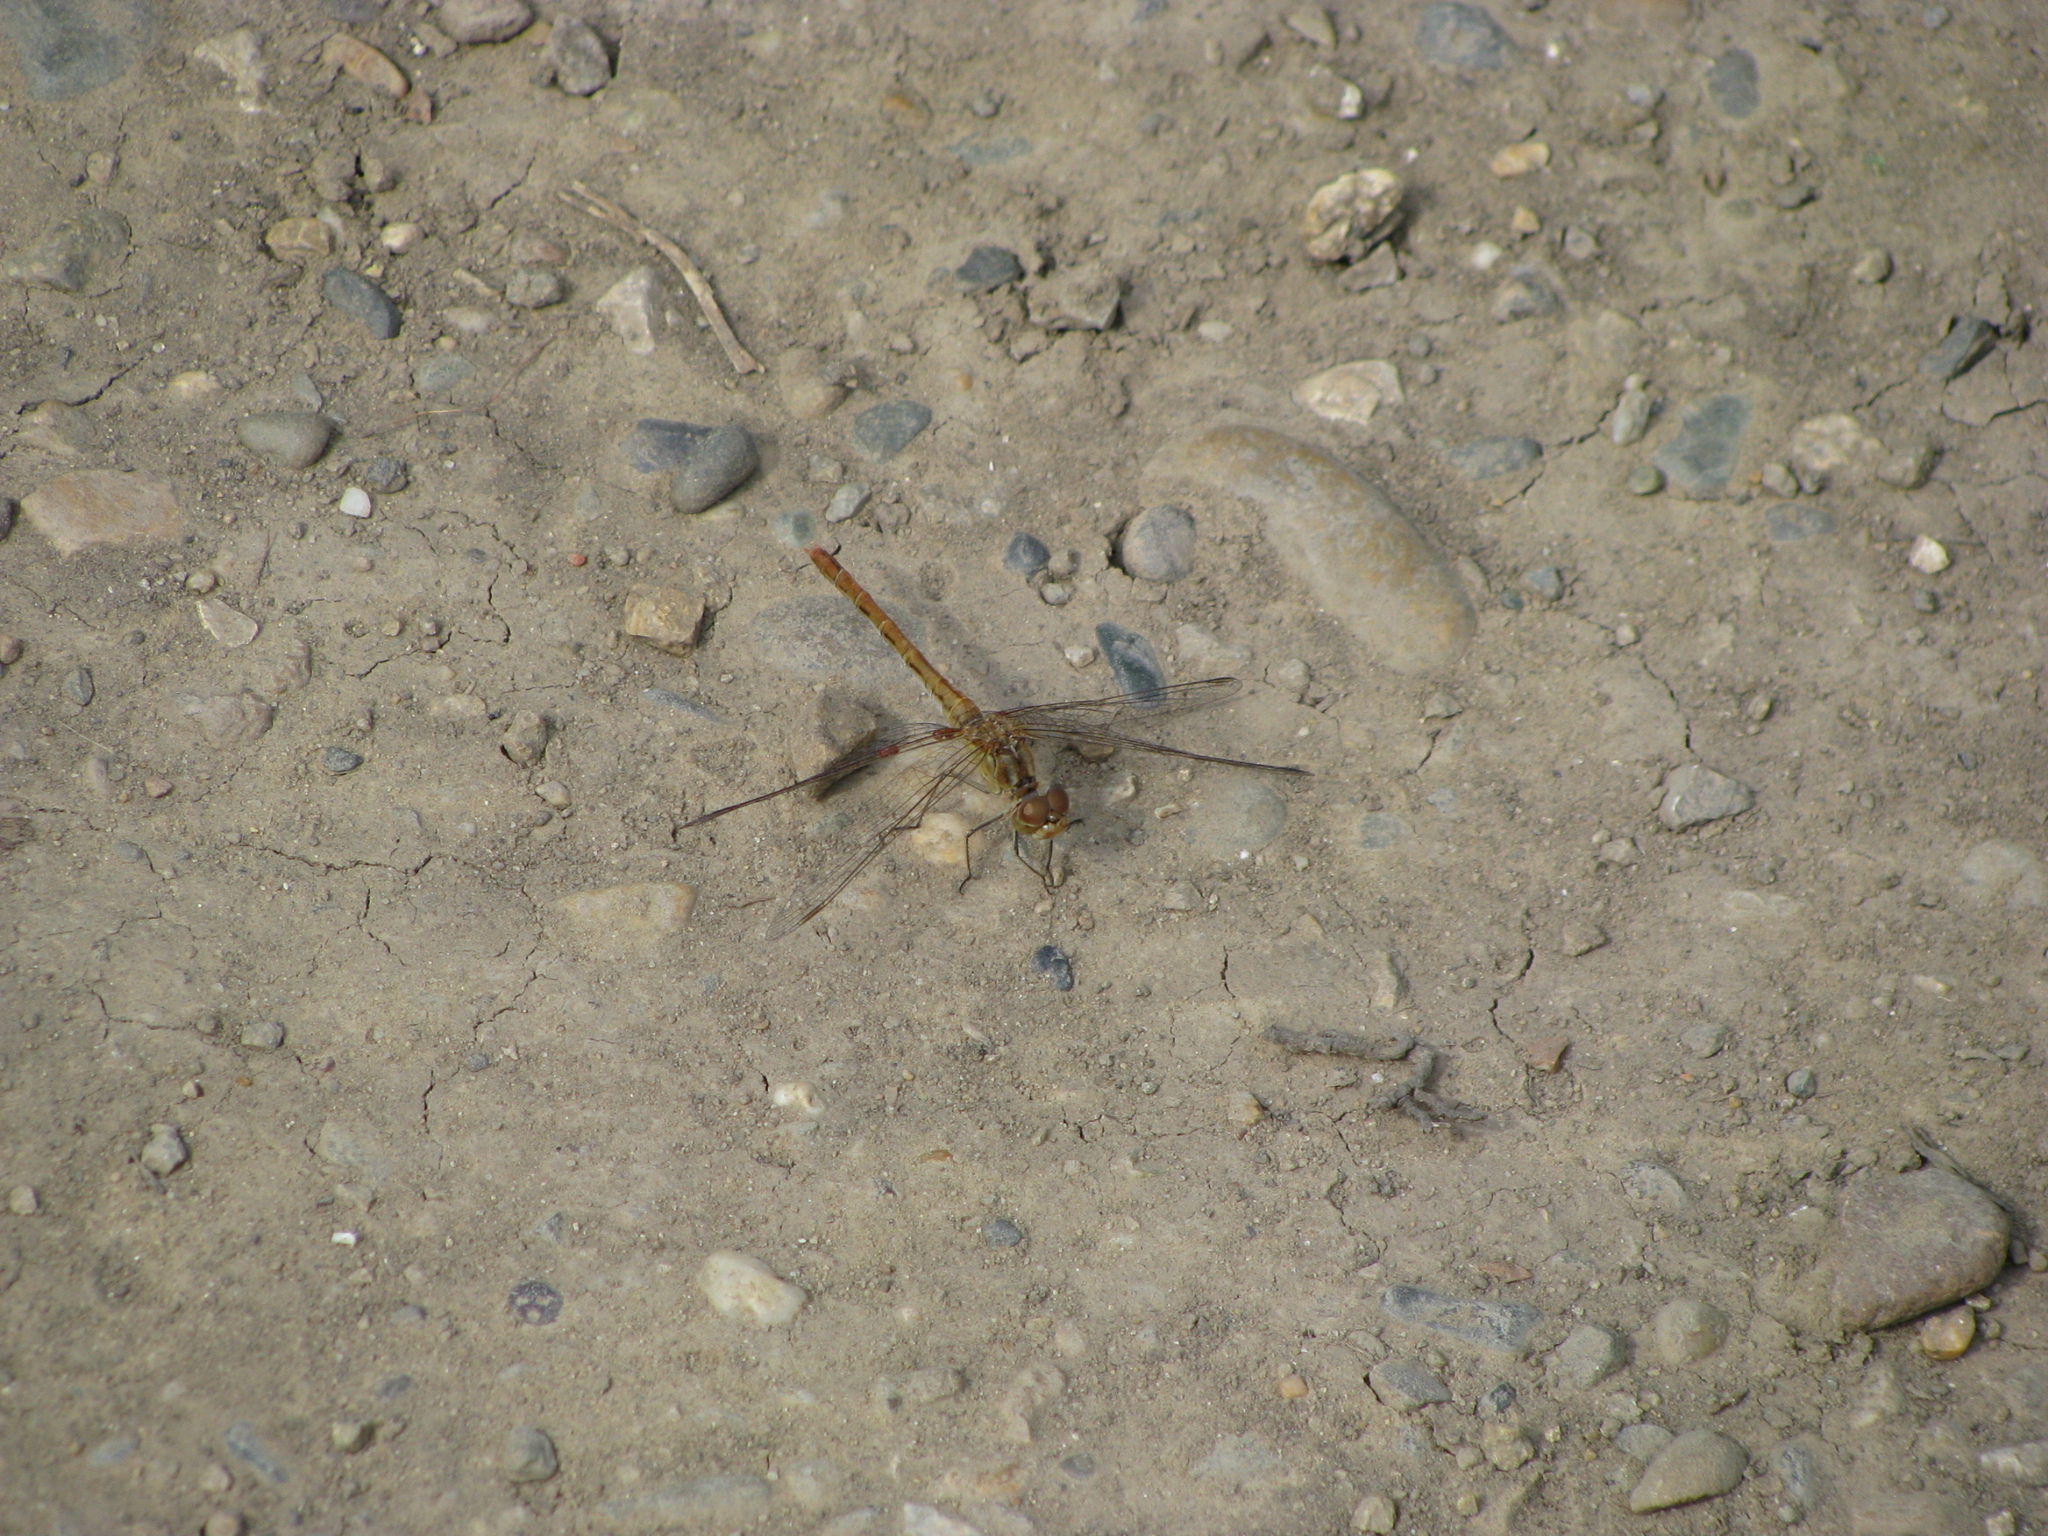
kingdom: Animalia
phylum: Arthropoda
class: Insecta
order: Odonata
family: Libellulidae
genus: Sympetrum
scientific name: Sympetrum meridionale
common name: Southern darter
